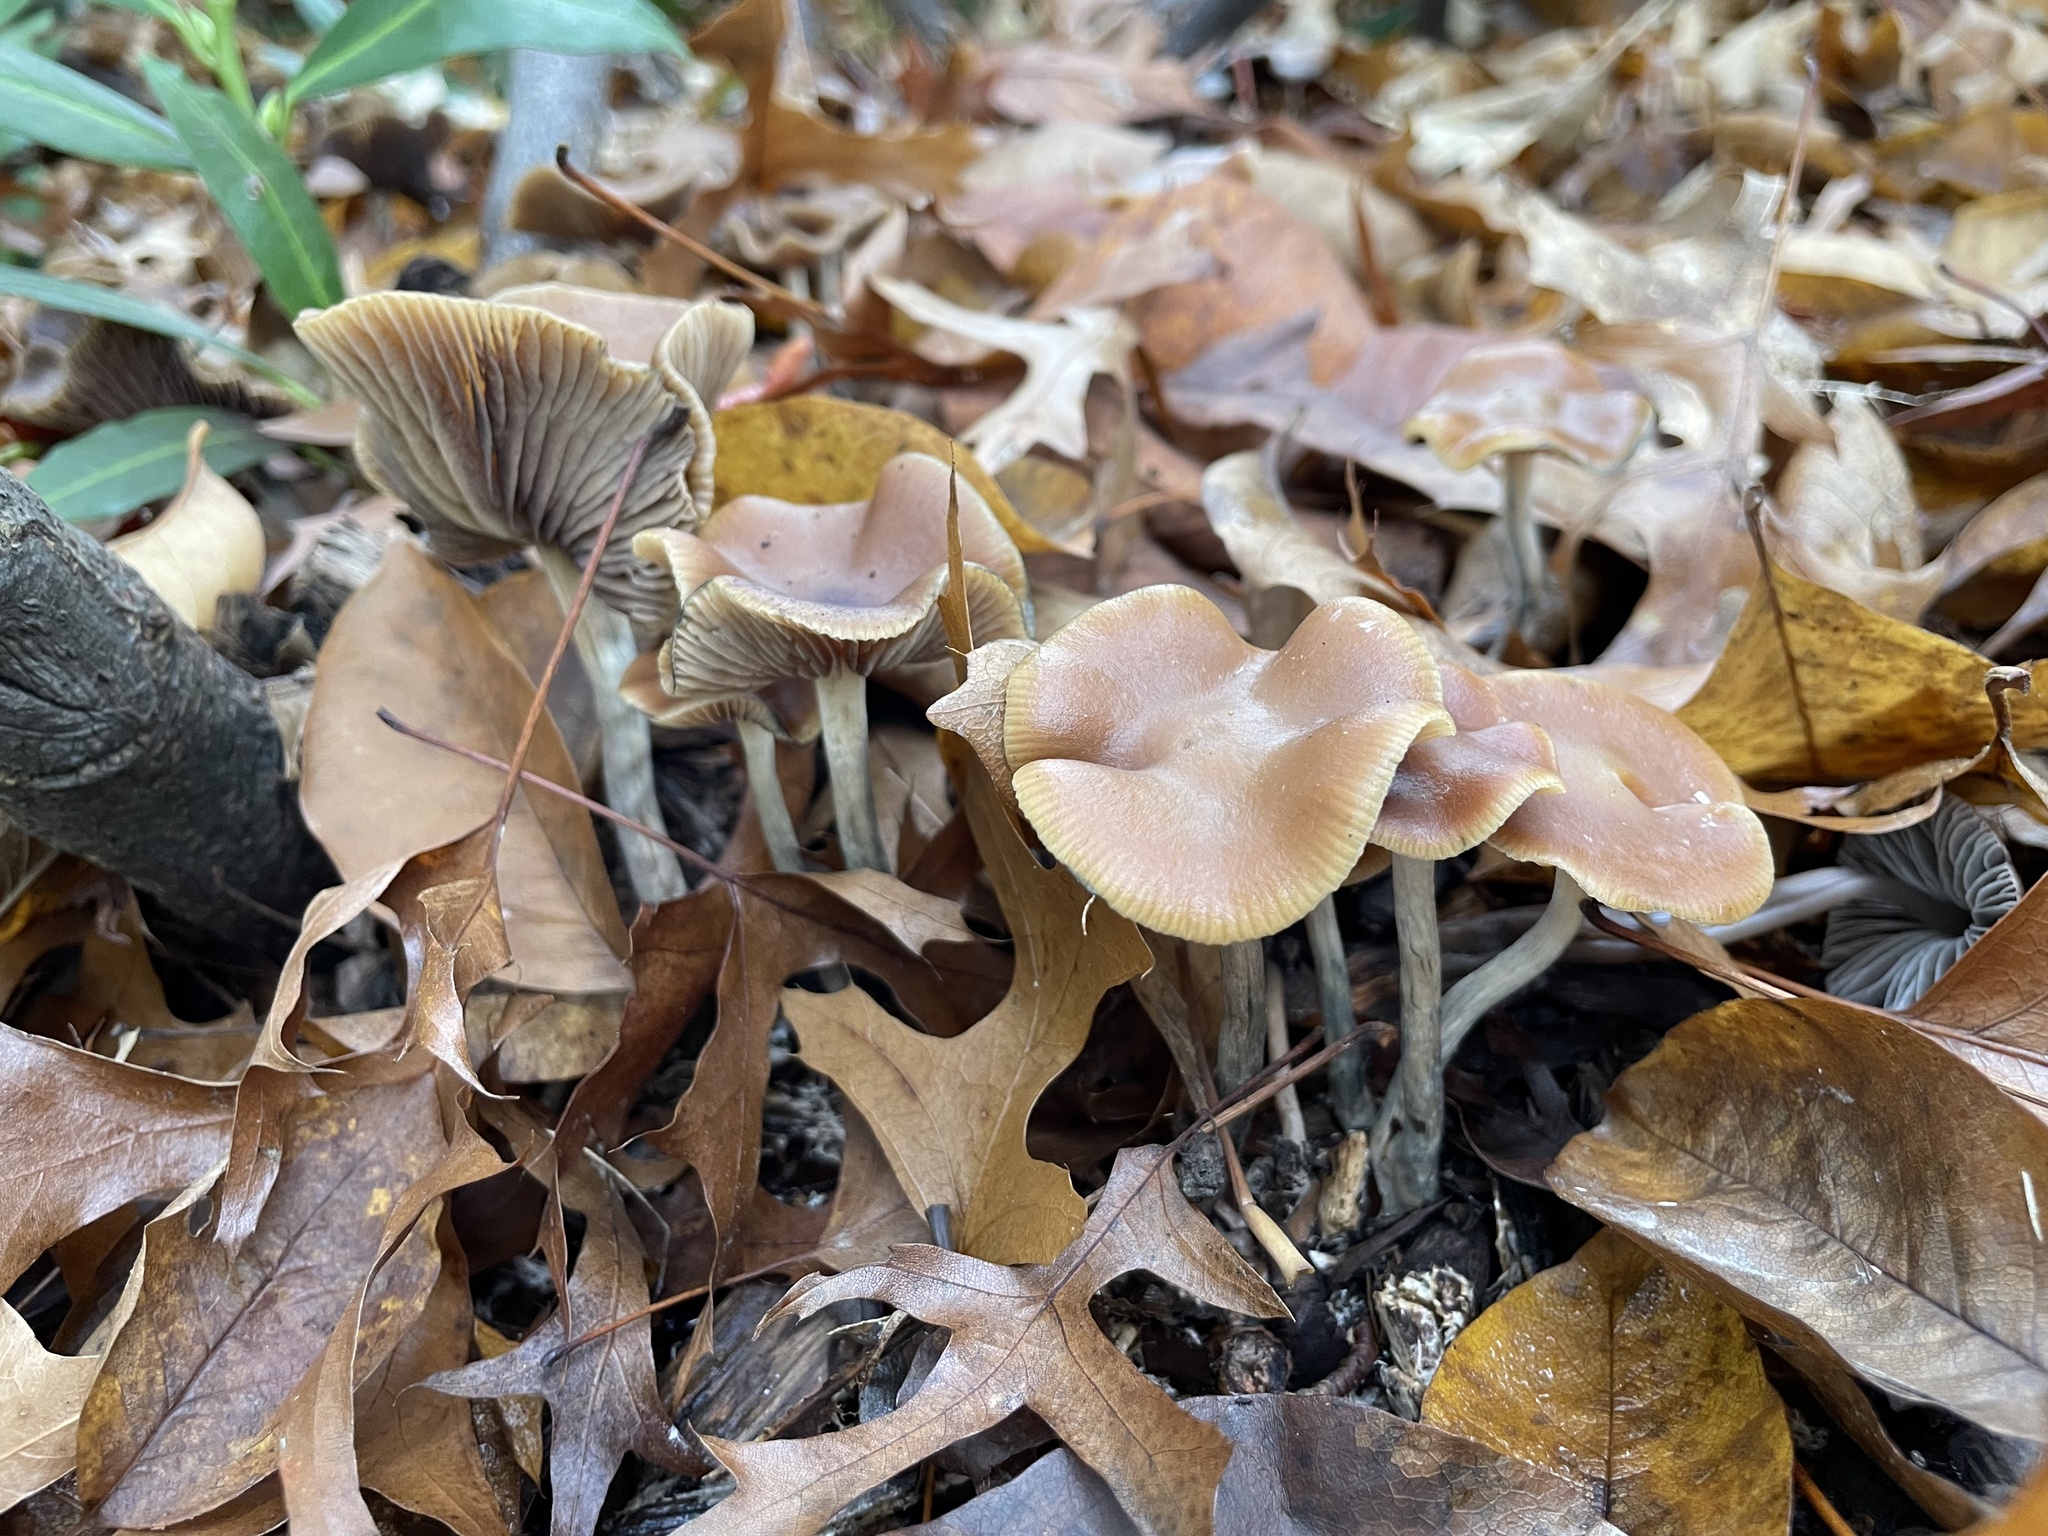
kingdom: Fungi
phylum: Basidiomycota
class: Agaricomycetes
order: Agaricales
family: Hymenogastraceae
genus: Psilocybe
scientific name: Psilocybe cyanescens
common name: Blueleg brownie
